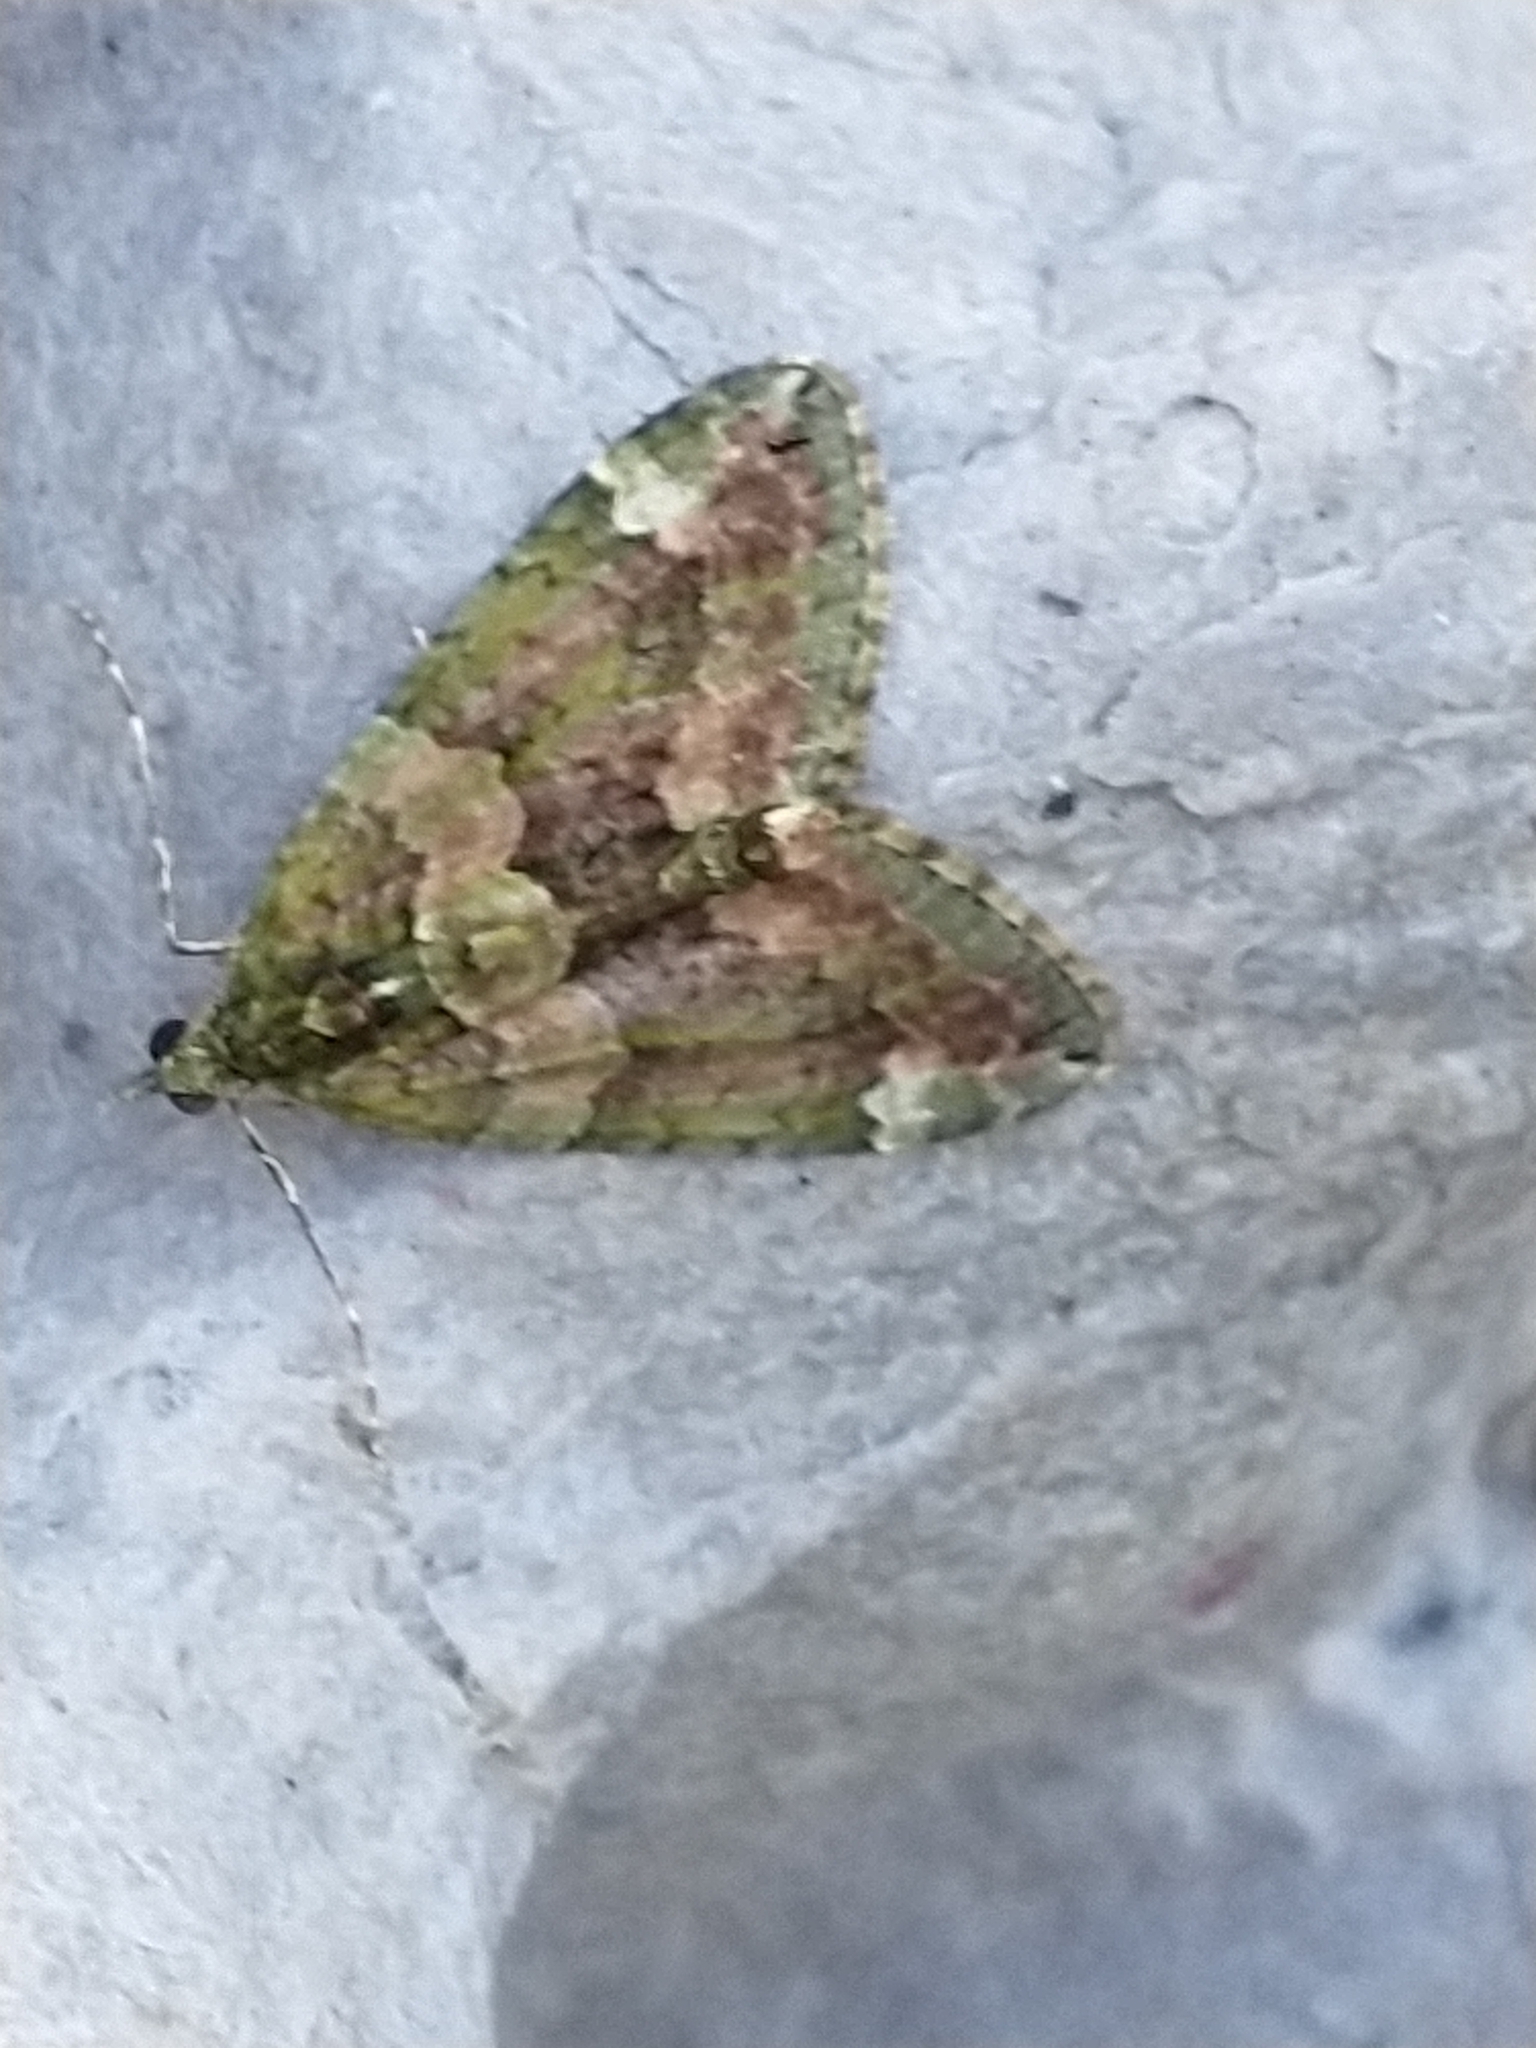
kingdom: Animalia
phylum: Arthropoda
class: Insecta
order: Lepidoptera
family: Geometridae
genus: Chloroclysta
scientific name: Chloroclysta siterata
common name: Red-green carpet
